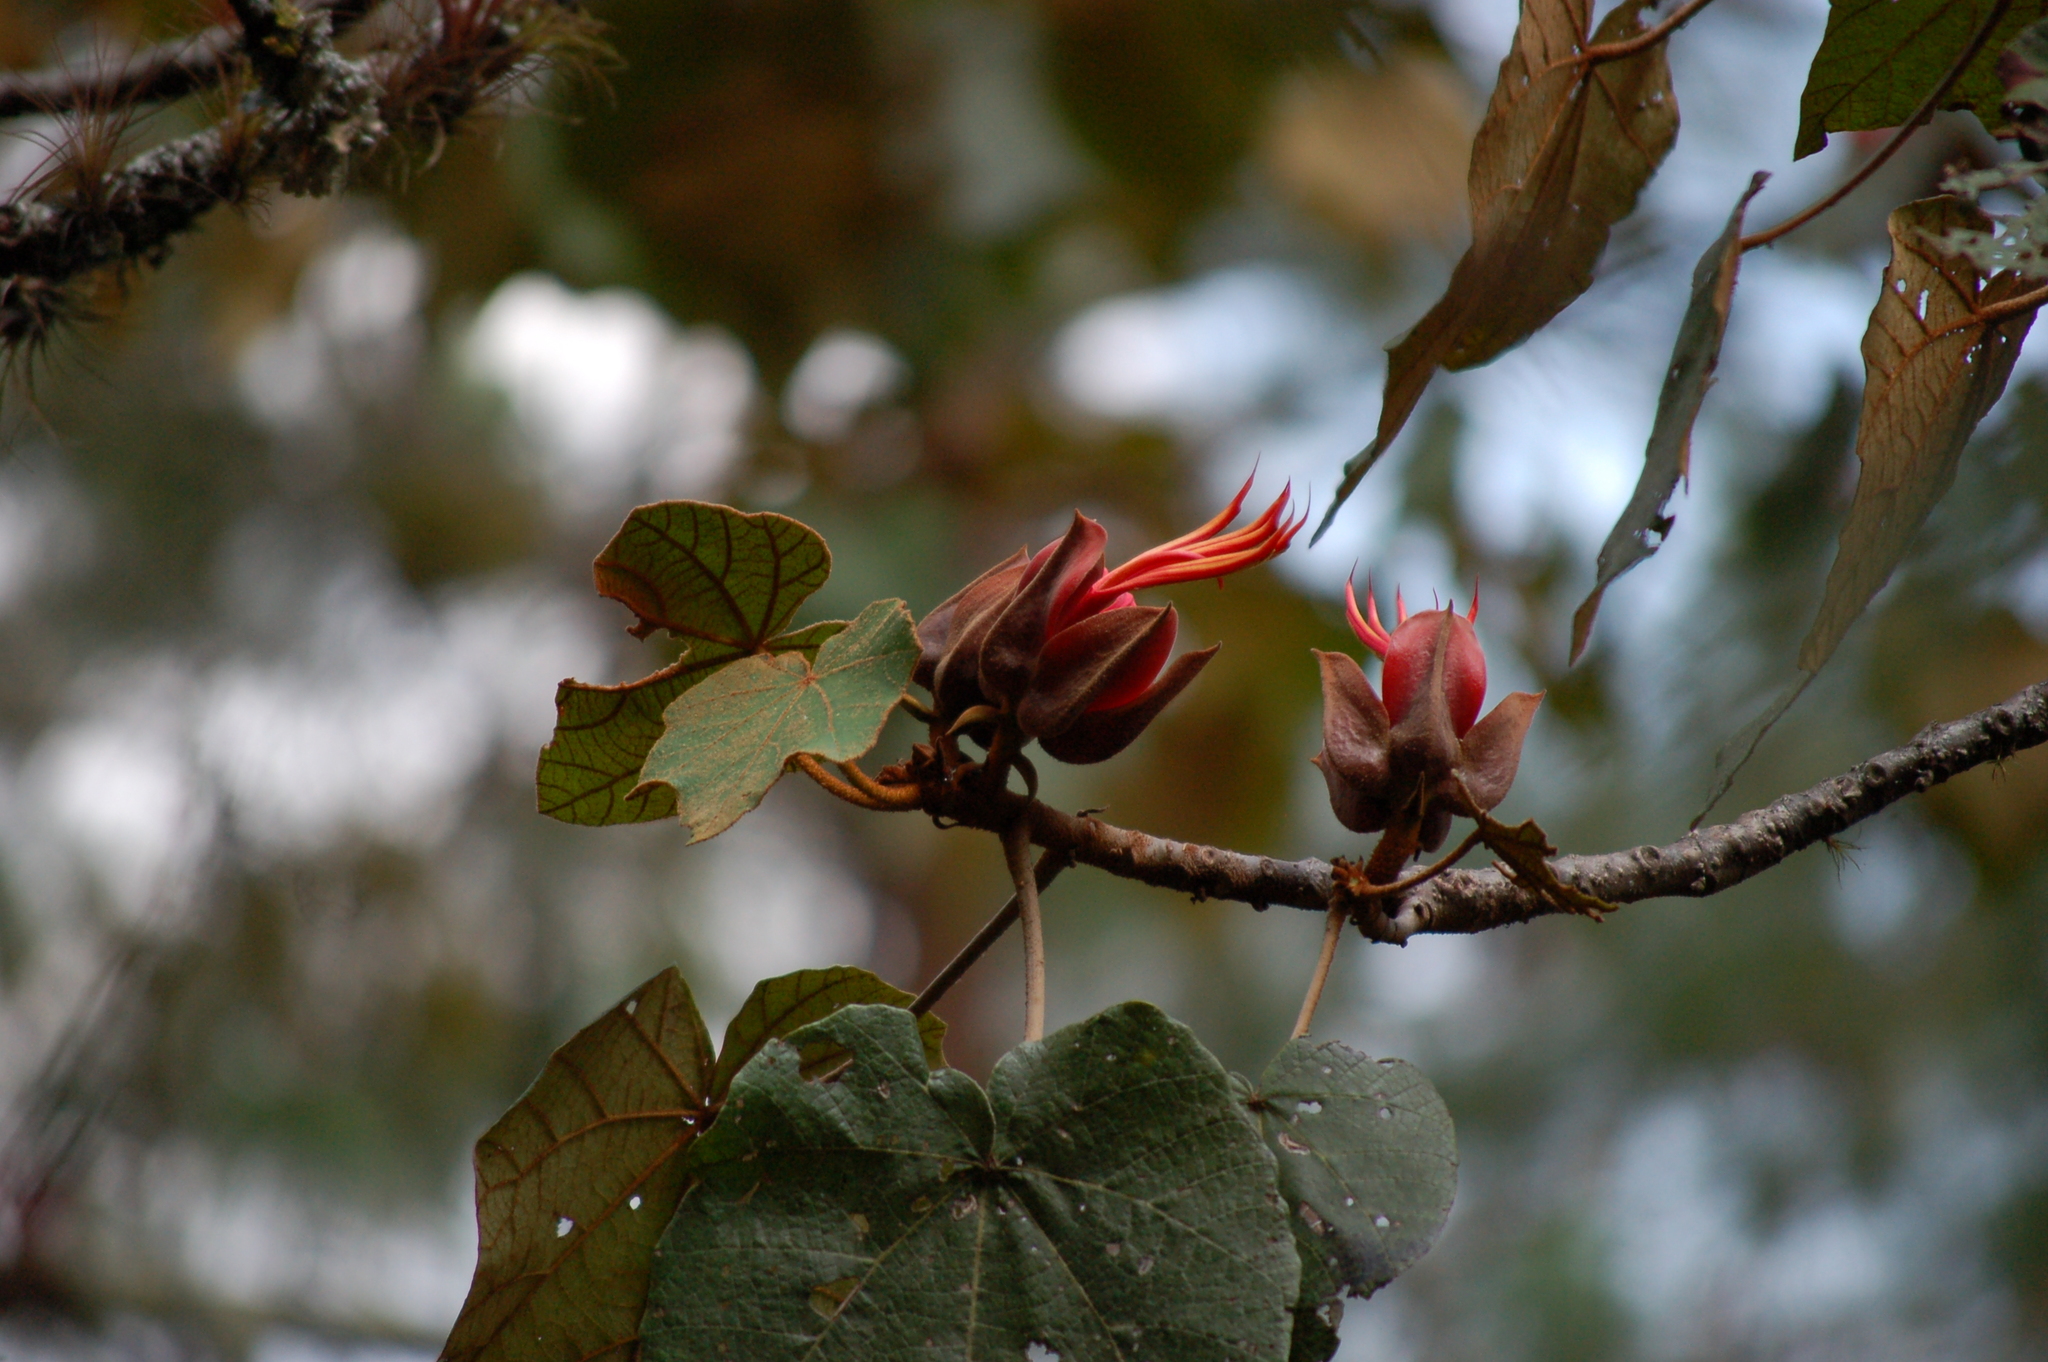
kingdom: Plantae
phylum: Tracheophyta
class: Magnoliopsida
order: Malvales
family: Malvaceae
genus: Chiranthodendron
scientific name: Chiranthodendron pentadactylon
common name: Mexican-hat-plant
